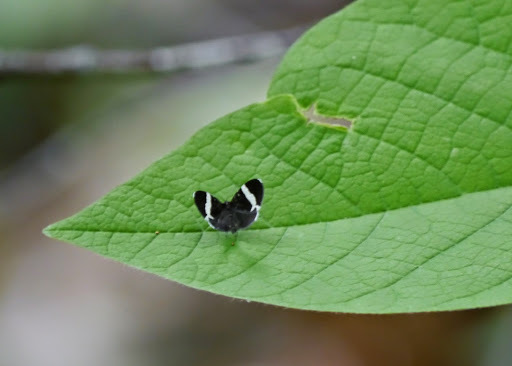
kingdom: Animalia
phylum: Arthropoda
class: Insecta
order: Lepidoptera
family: Geometridae
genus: Trichodezia
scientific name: Trichodezia albovittata
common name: White striped black
